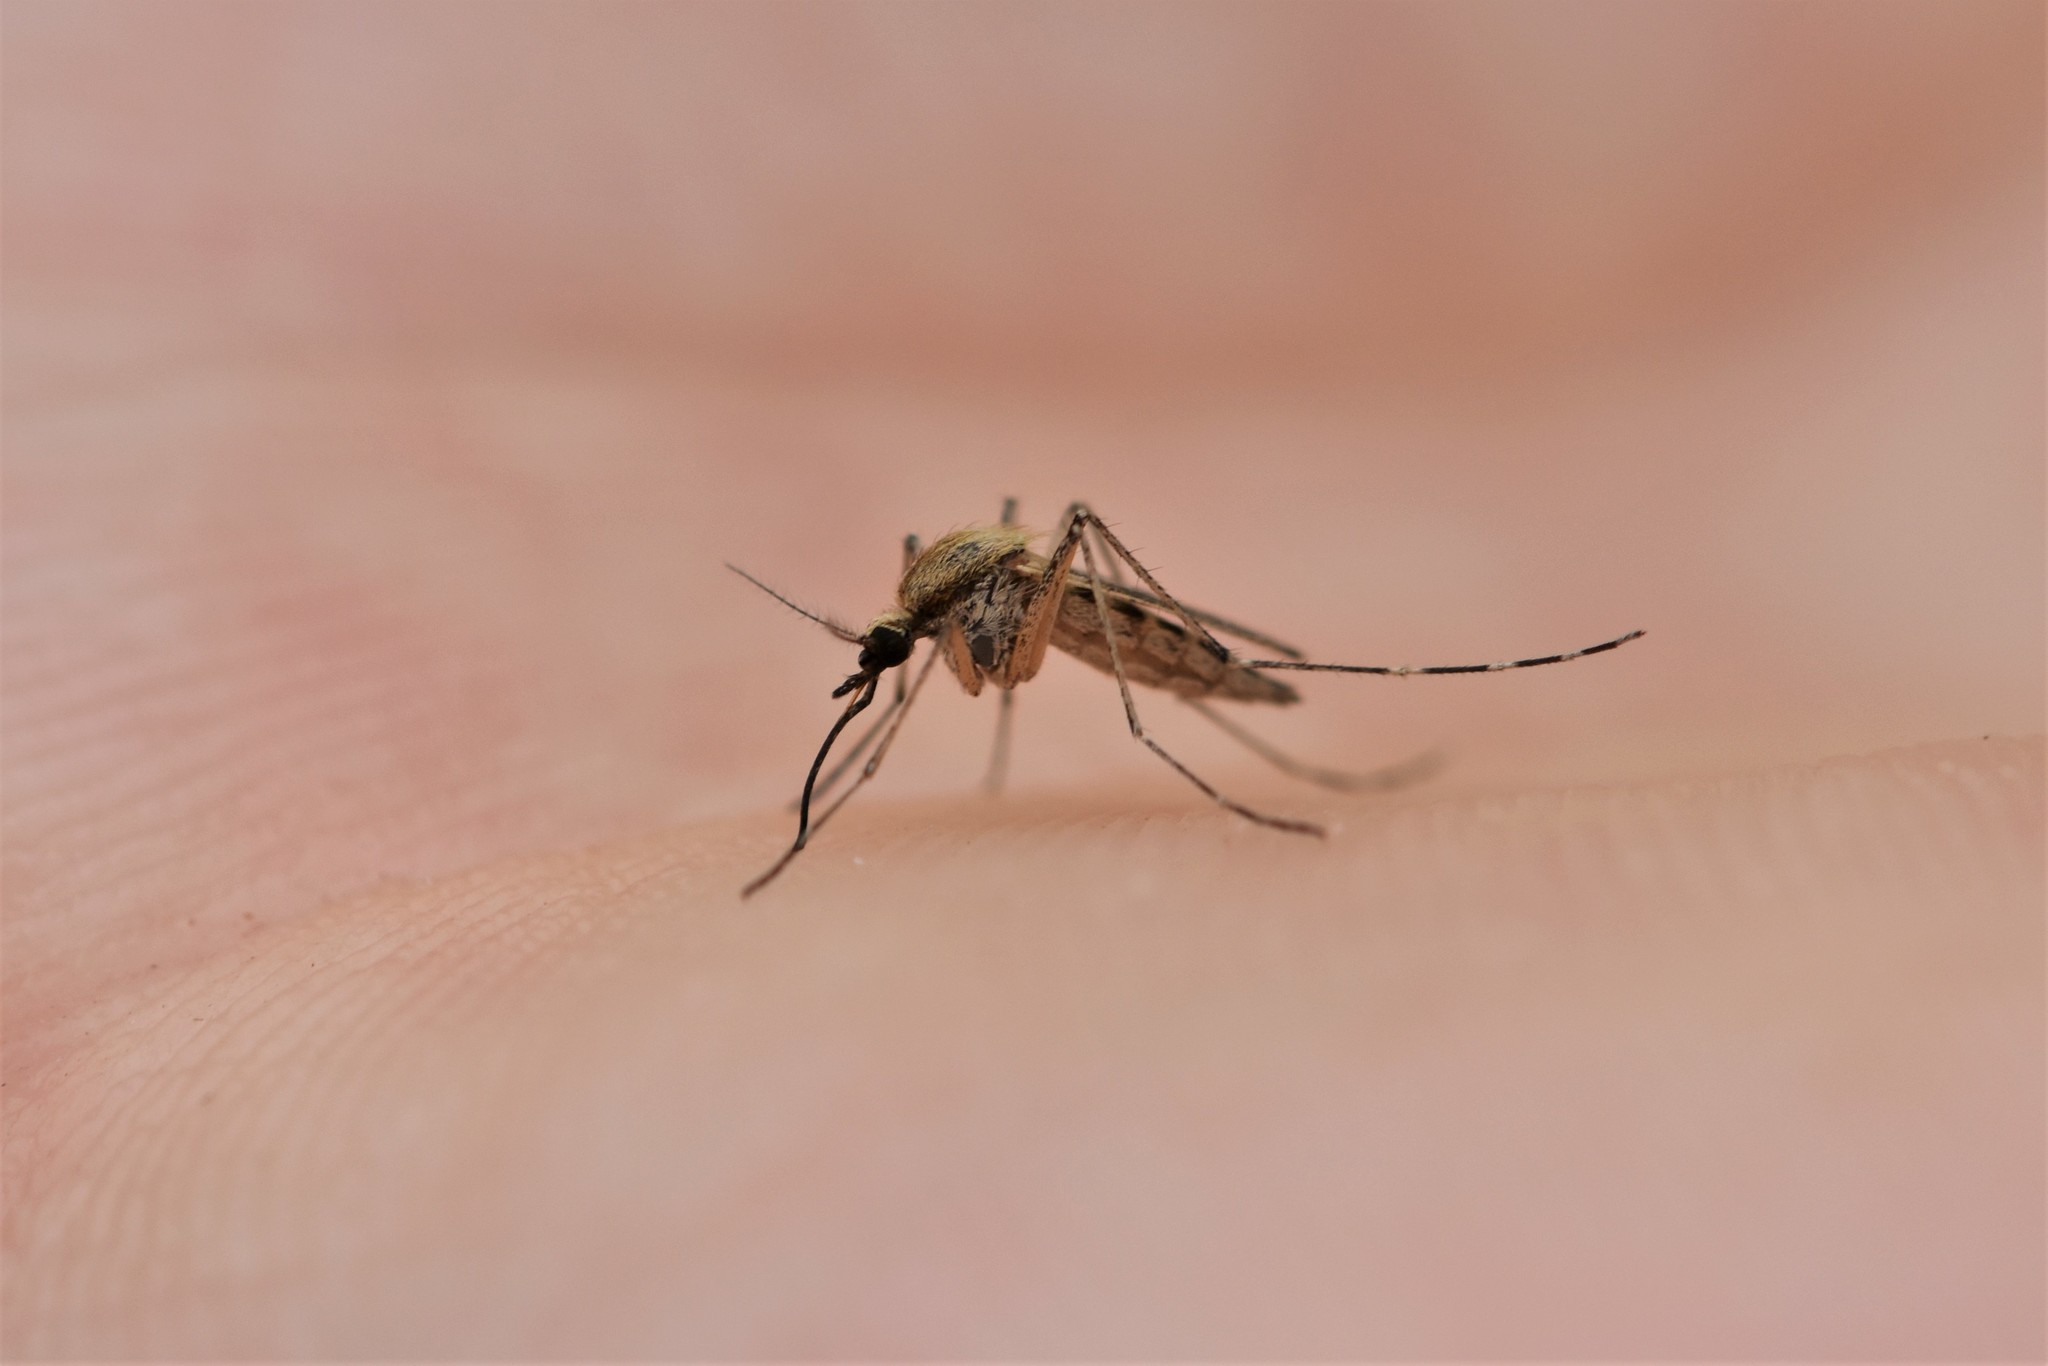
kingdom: Animalia
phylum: Arthropoda
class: Insecta
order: Diptera
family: Culicidae
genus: Aedes
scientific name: Aedes dorsalis
